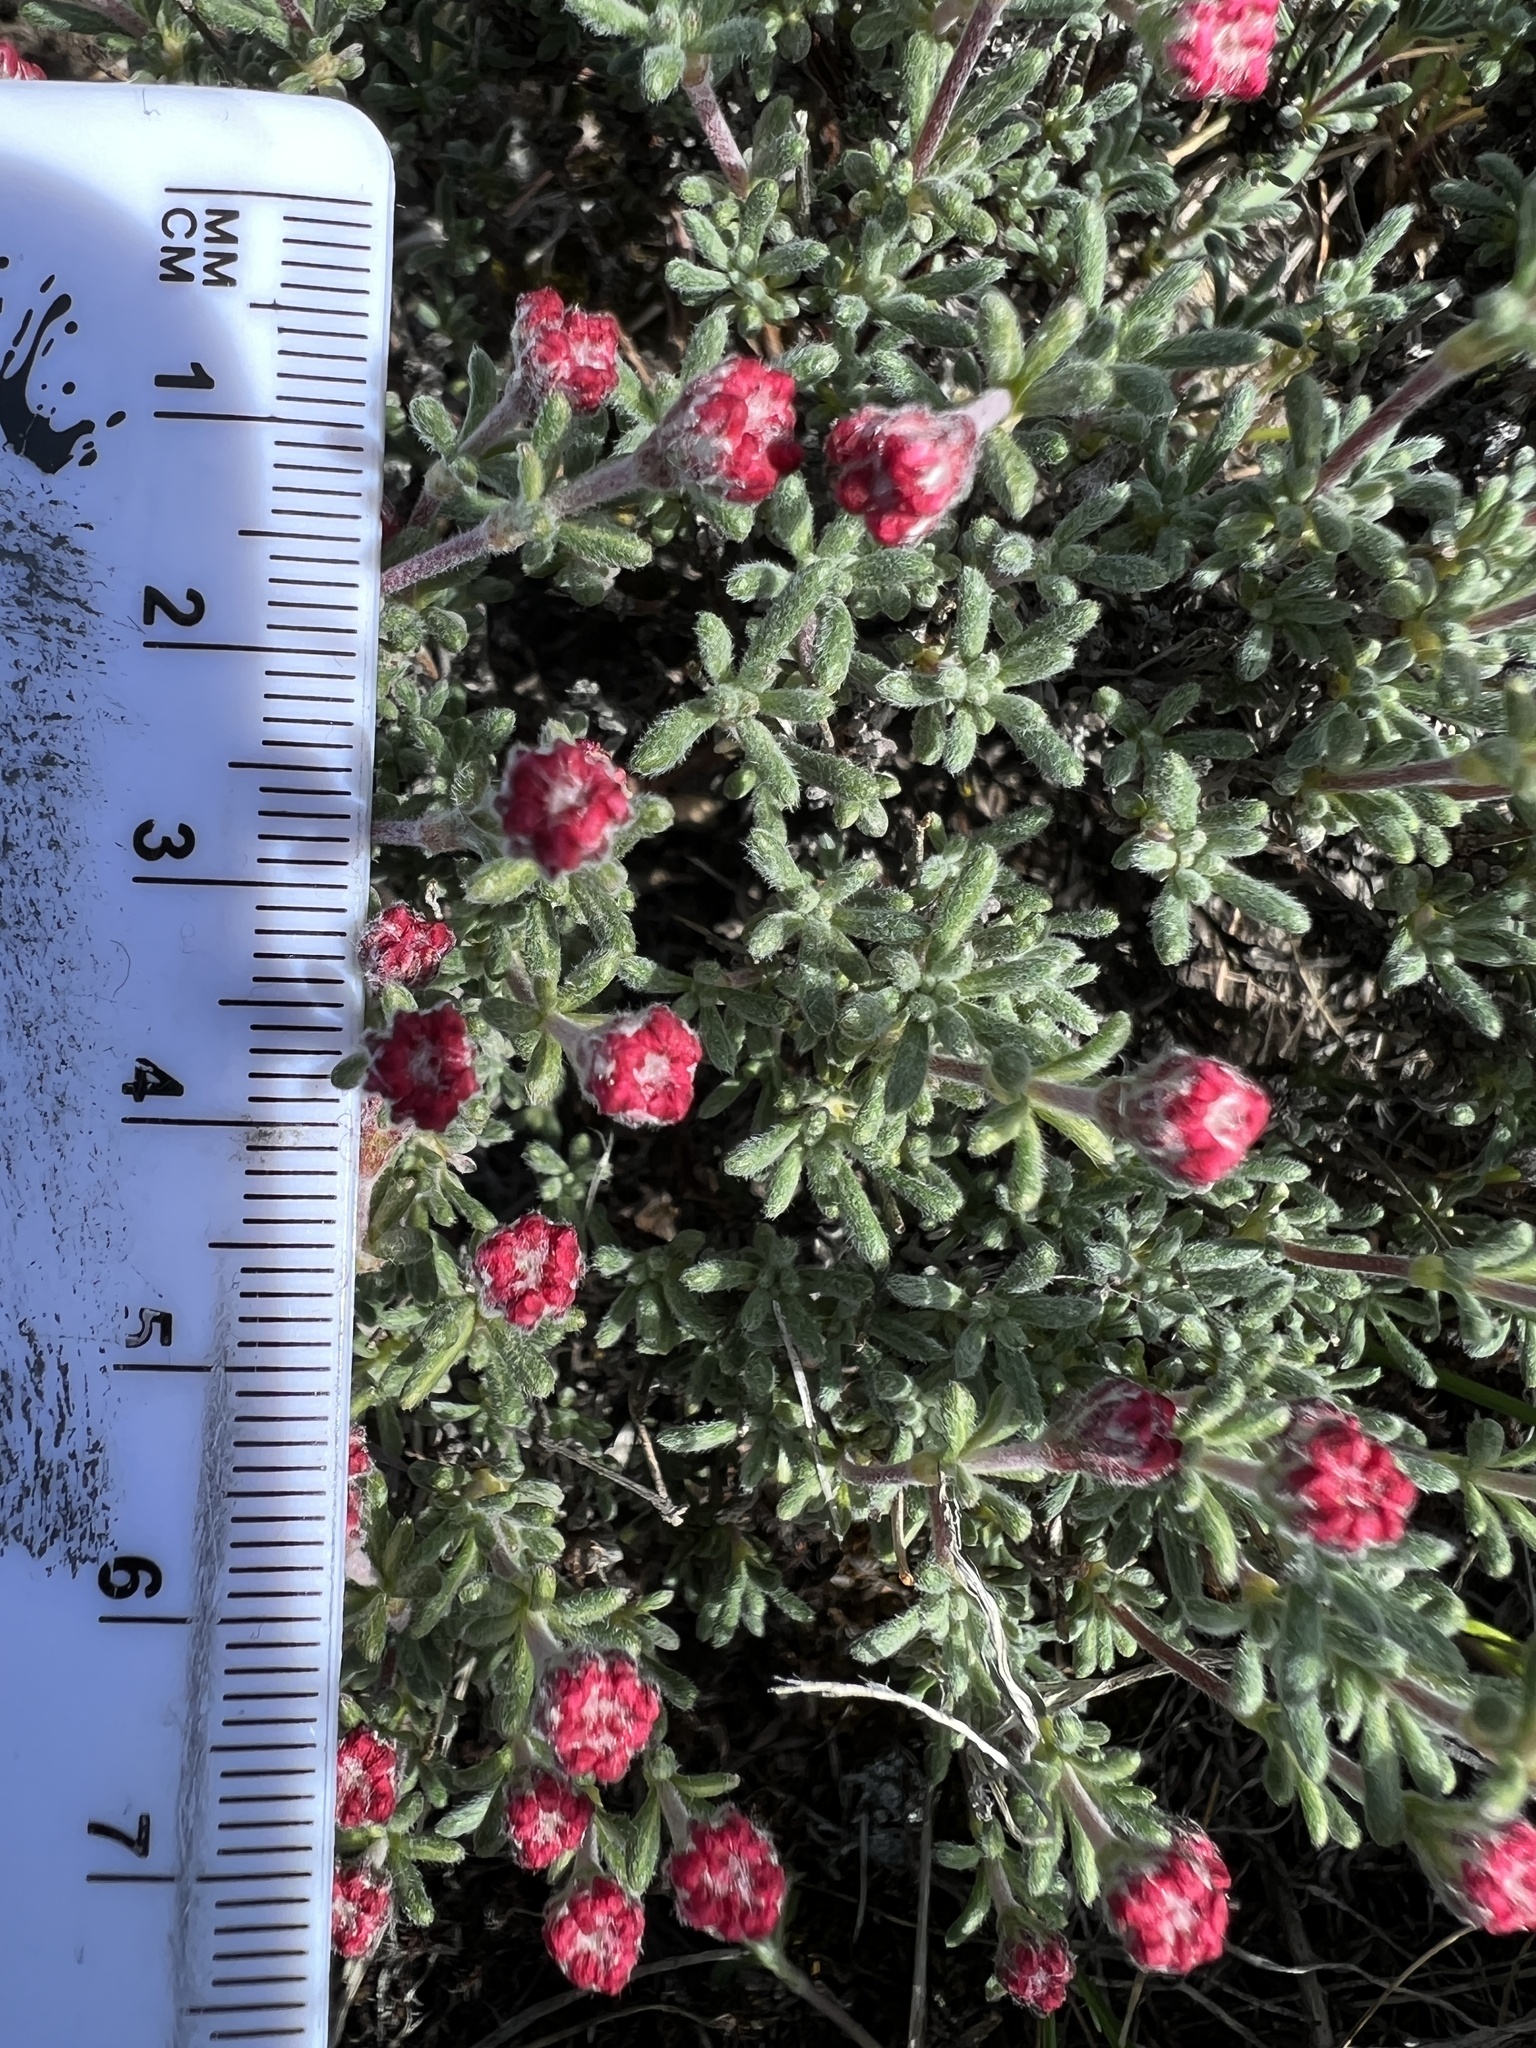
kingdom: Plantae
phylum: Tracheophyta
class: Magnoliopsida
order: Caryophyllales
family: Polygonaceae
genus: Eriogonum
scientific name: Eriogonum thymoides
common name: Thyme-leaf wild buckwheat
